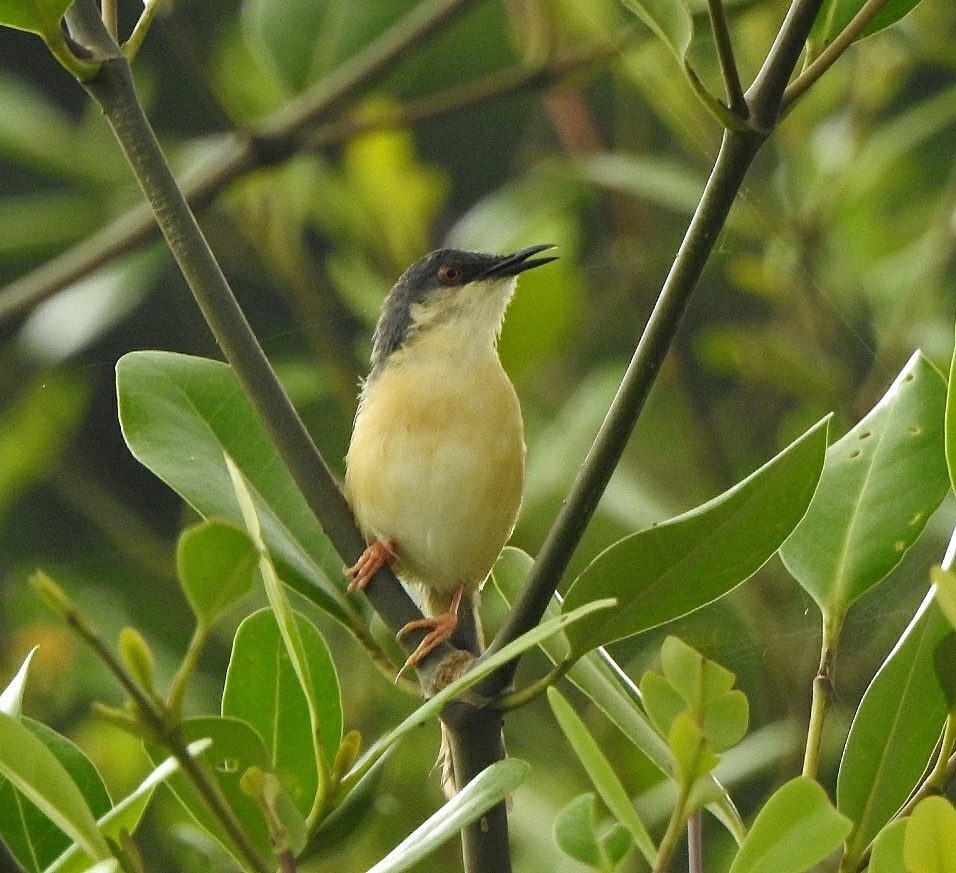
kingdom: Animalia
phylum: Chordata
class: Aves
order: Passeriformes
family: Cisticolidae
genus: Prinia
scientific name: Prinia socialis
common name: Ashy prinia
